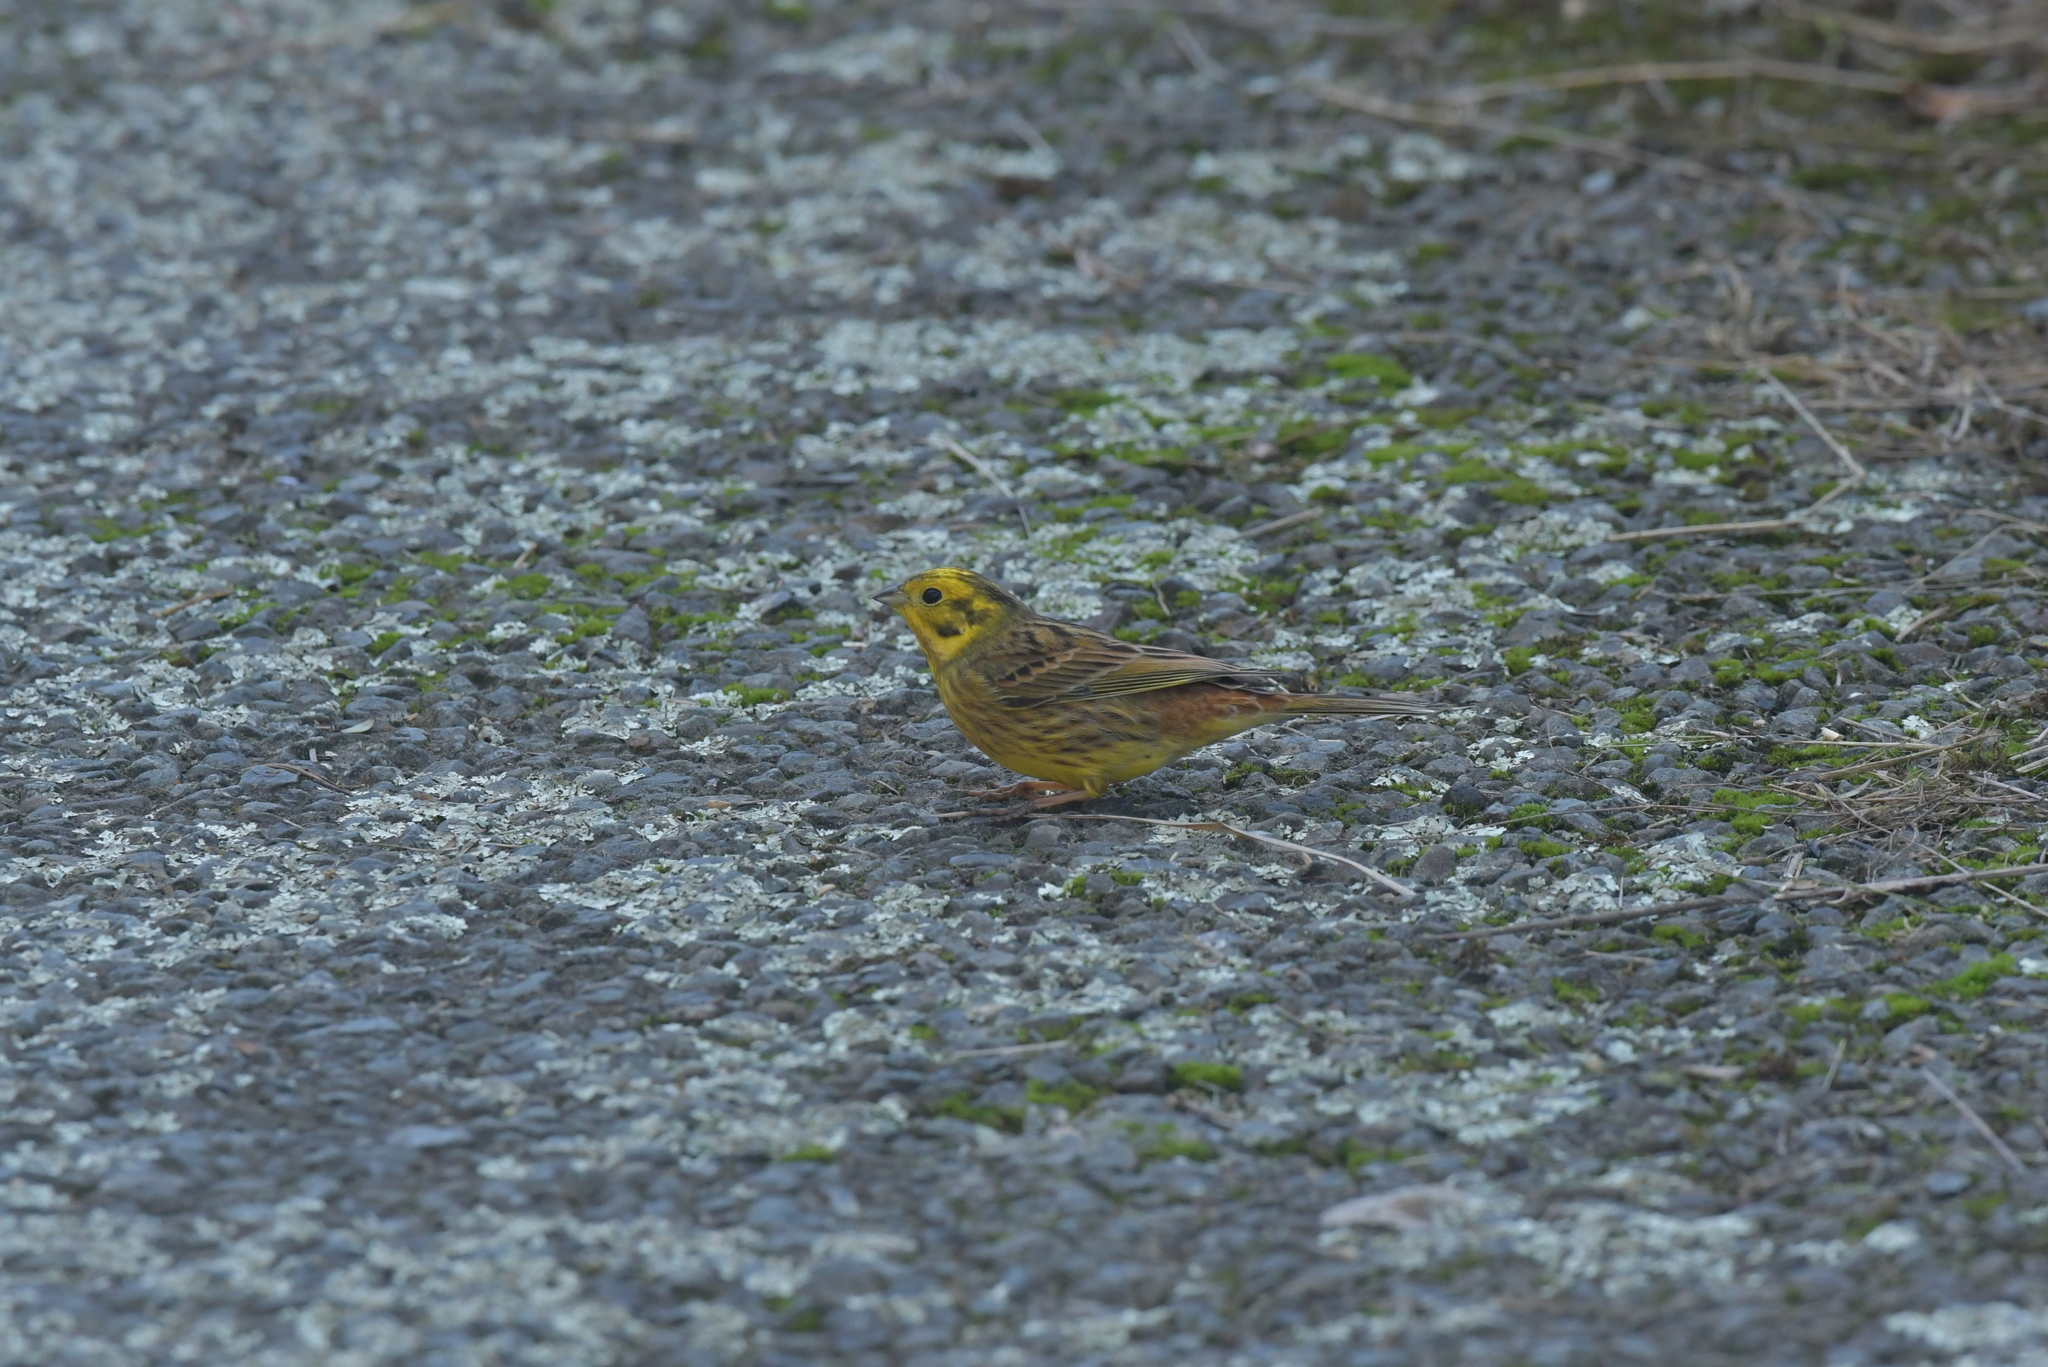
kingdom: Animalia
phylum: Chordata
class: Aves
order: Passeriformes
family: Emberizidae
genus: Emberiza
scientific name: Emberiza citrinella
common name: Yellowhammer
